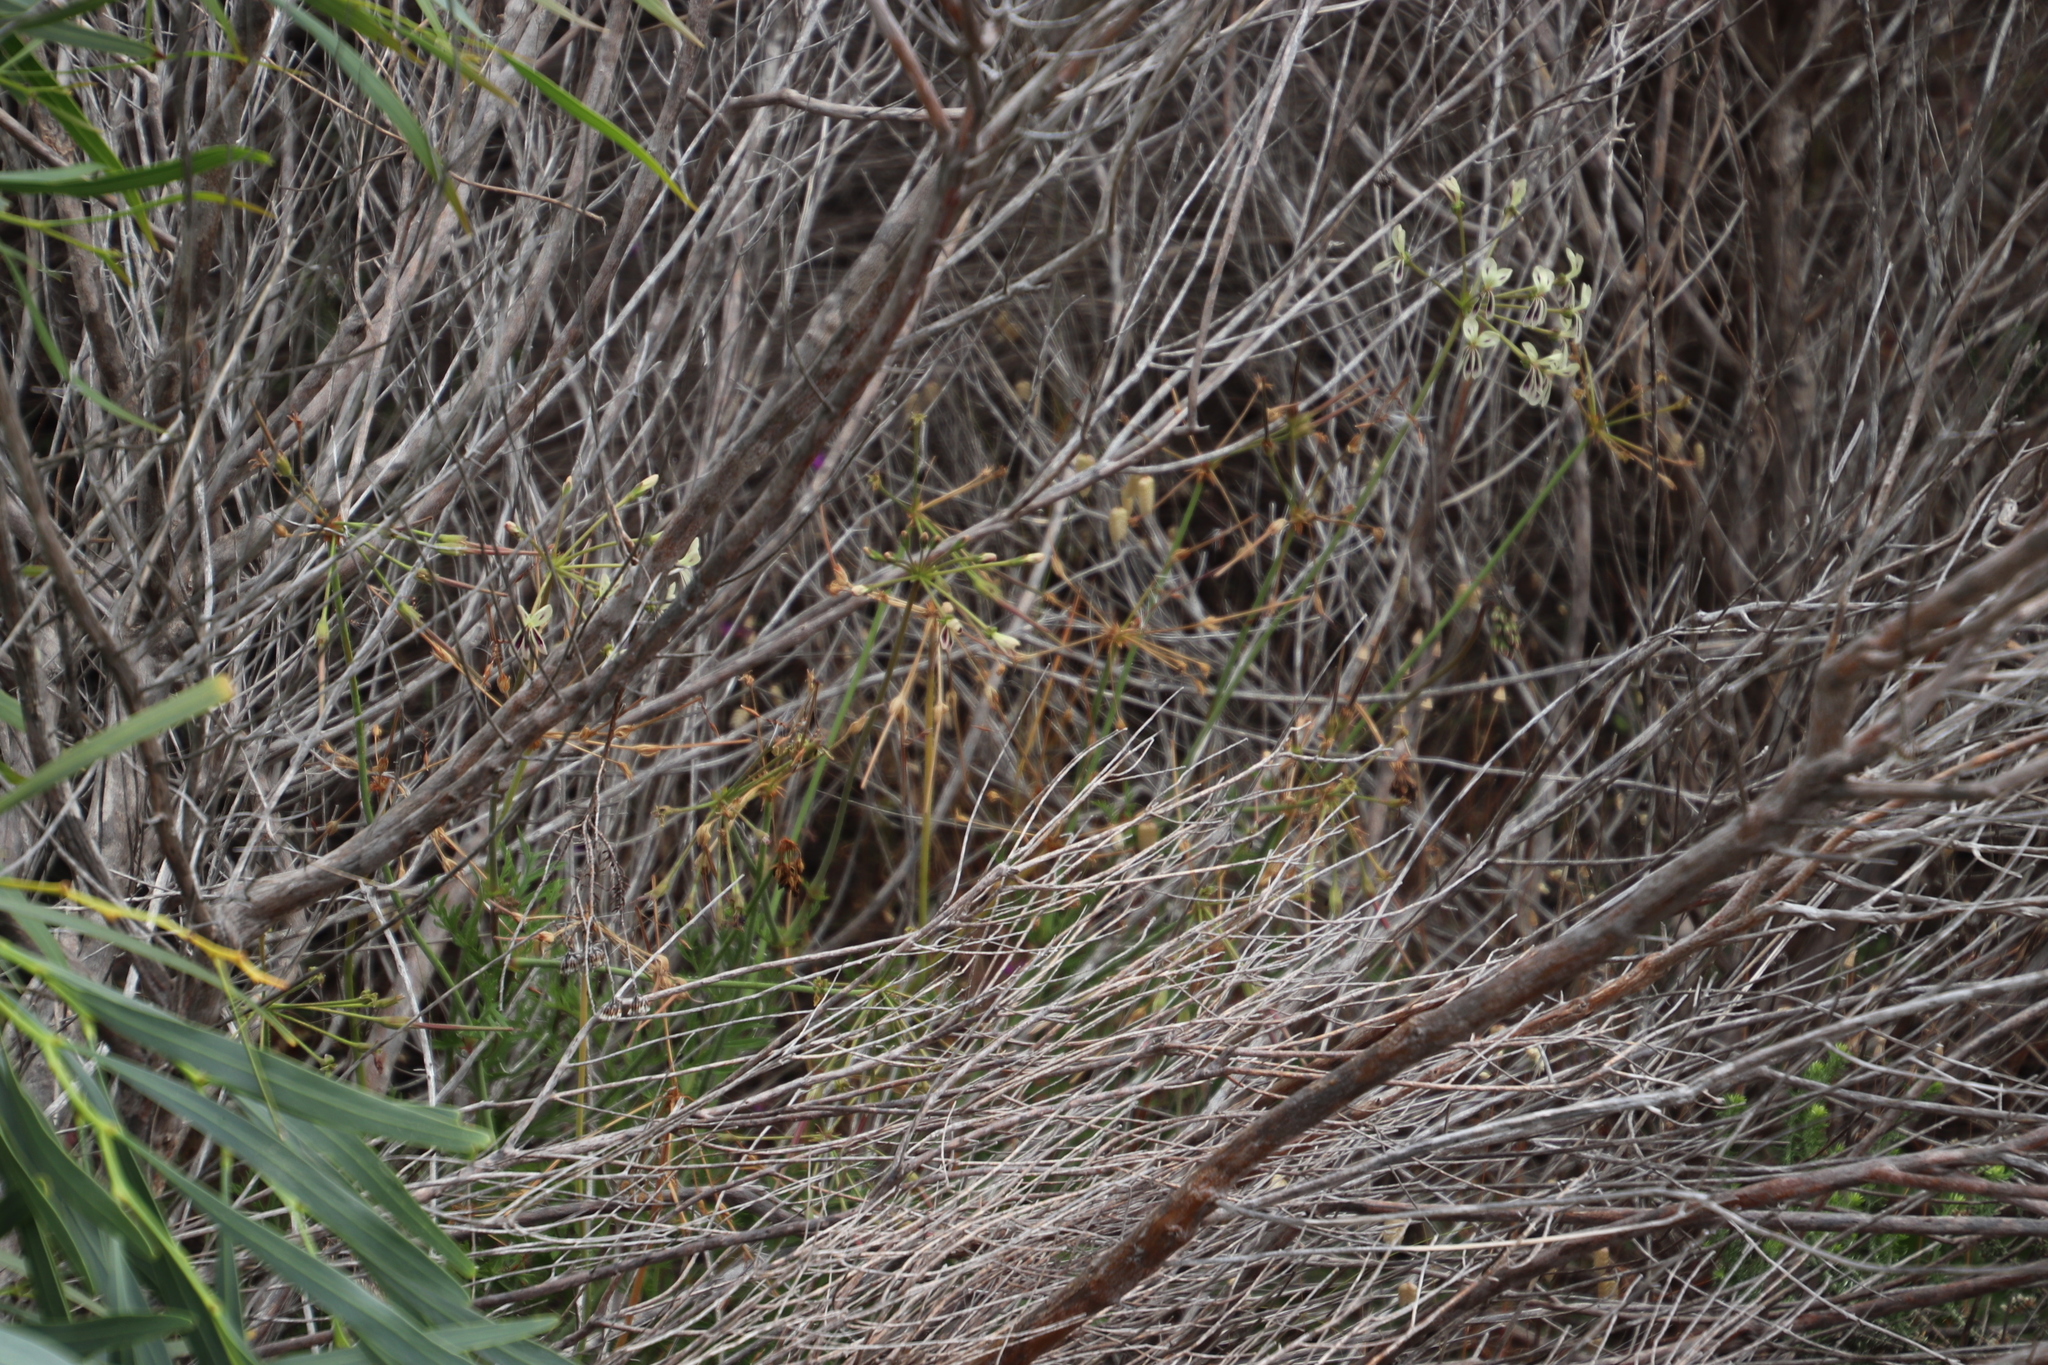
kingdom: Plantae
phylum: Tracheophyta
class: Magnoliopsida
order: Geraniales
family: Geraniaceae
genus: Pelargonium
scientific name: Pelargonium triste
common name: Night-scent pelargonium
